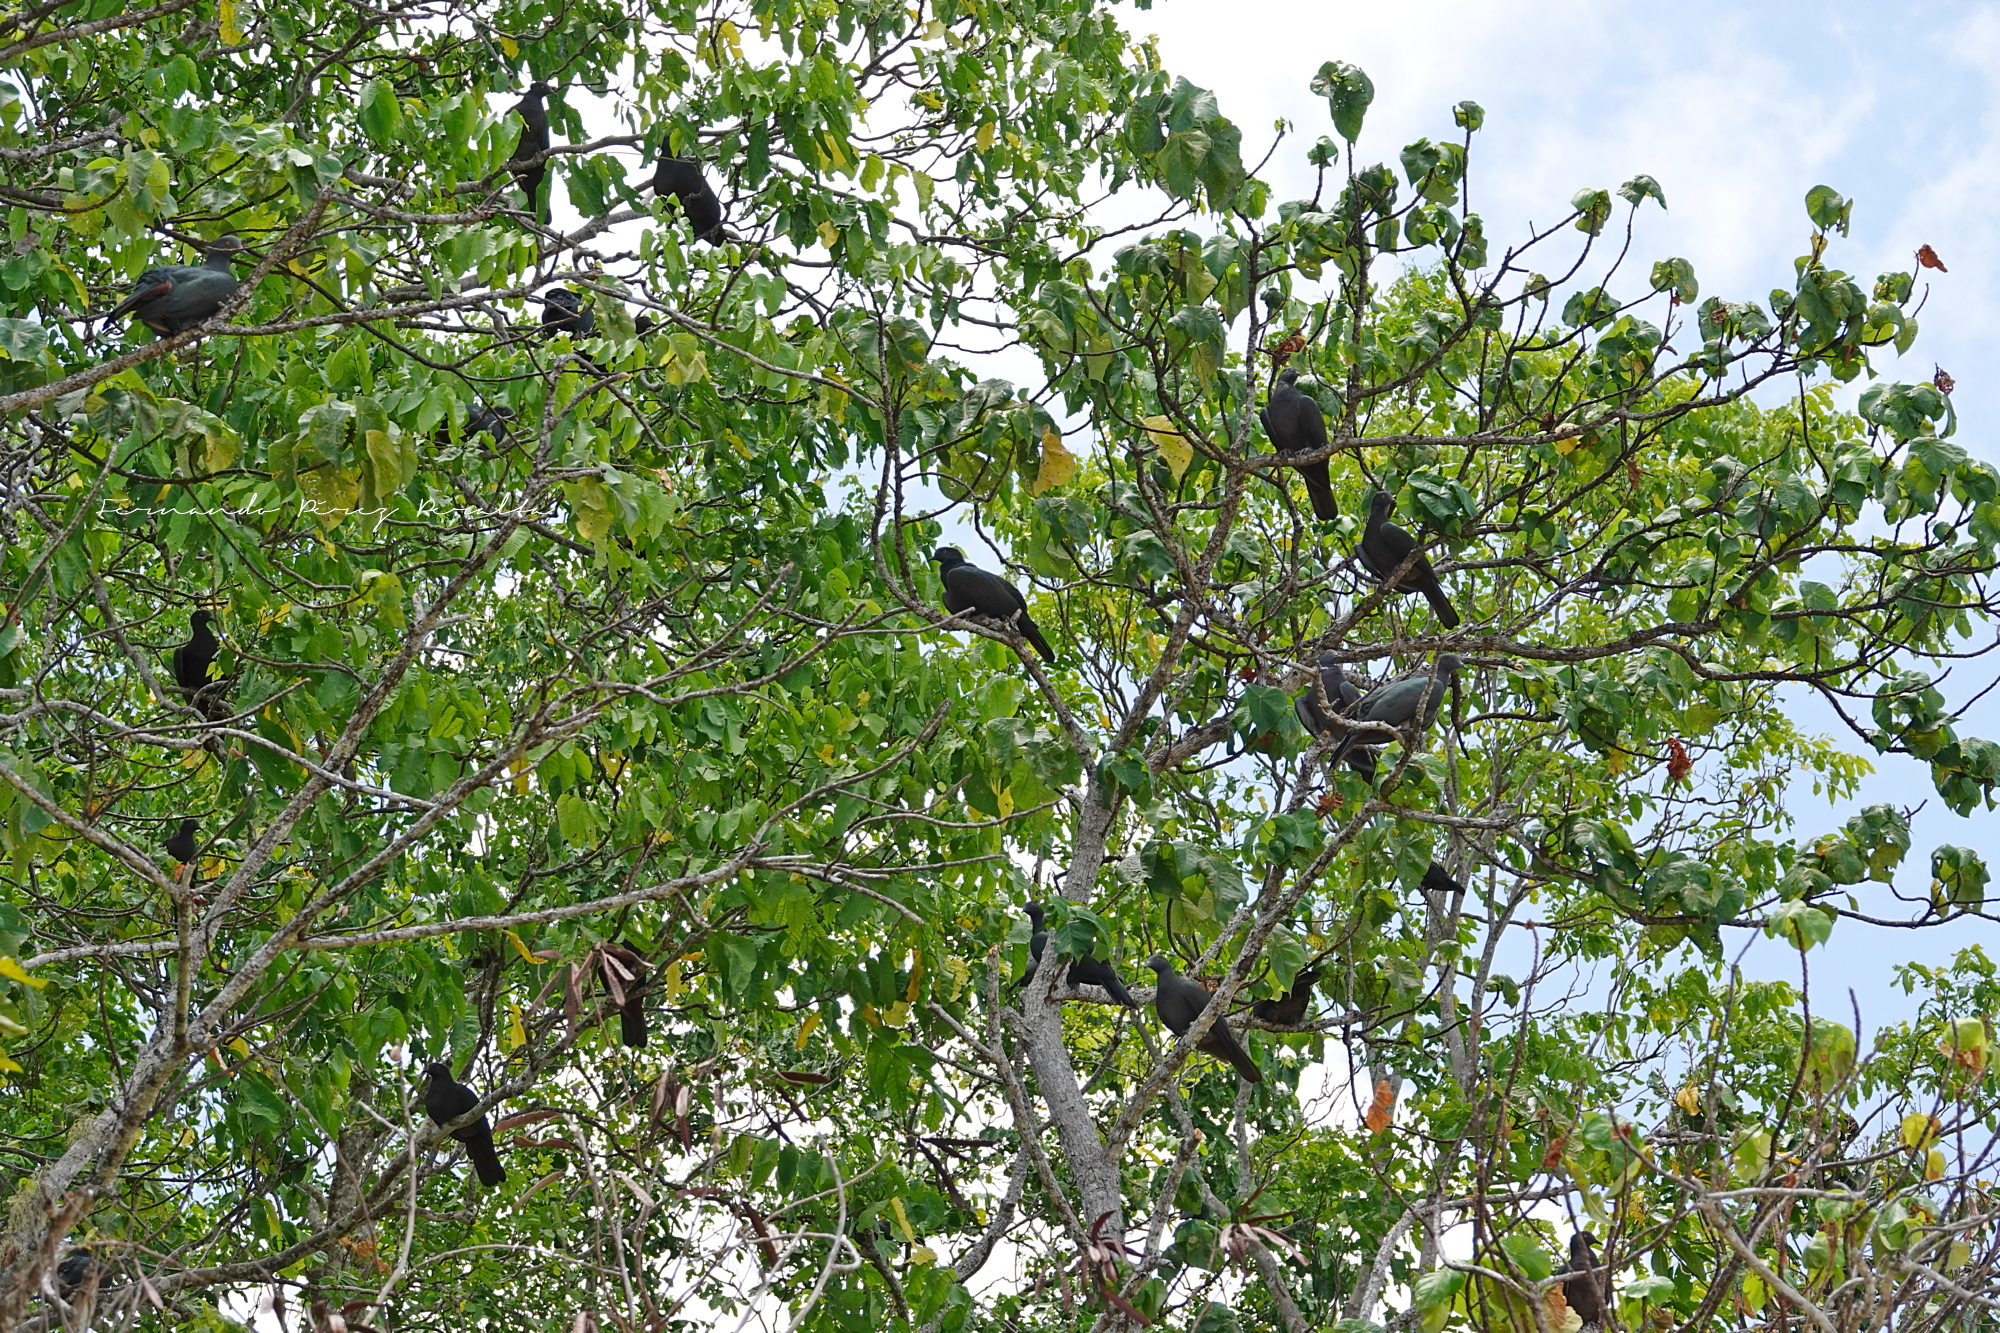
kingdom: Animalia
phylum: Chordata
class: Aves
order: Columbiformes
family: Columbidae
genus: Ducula
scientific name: Ducula whartoni
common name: Christmas imperial pigeon
